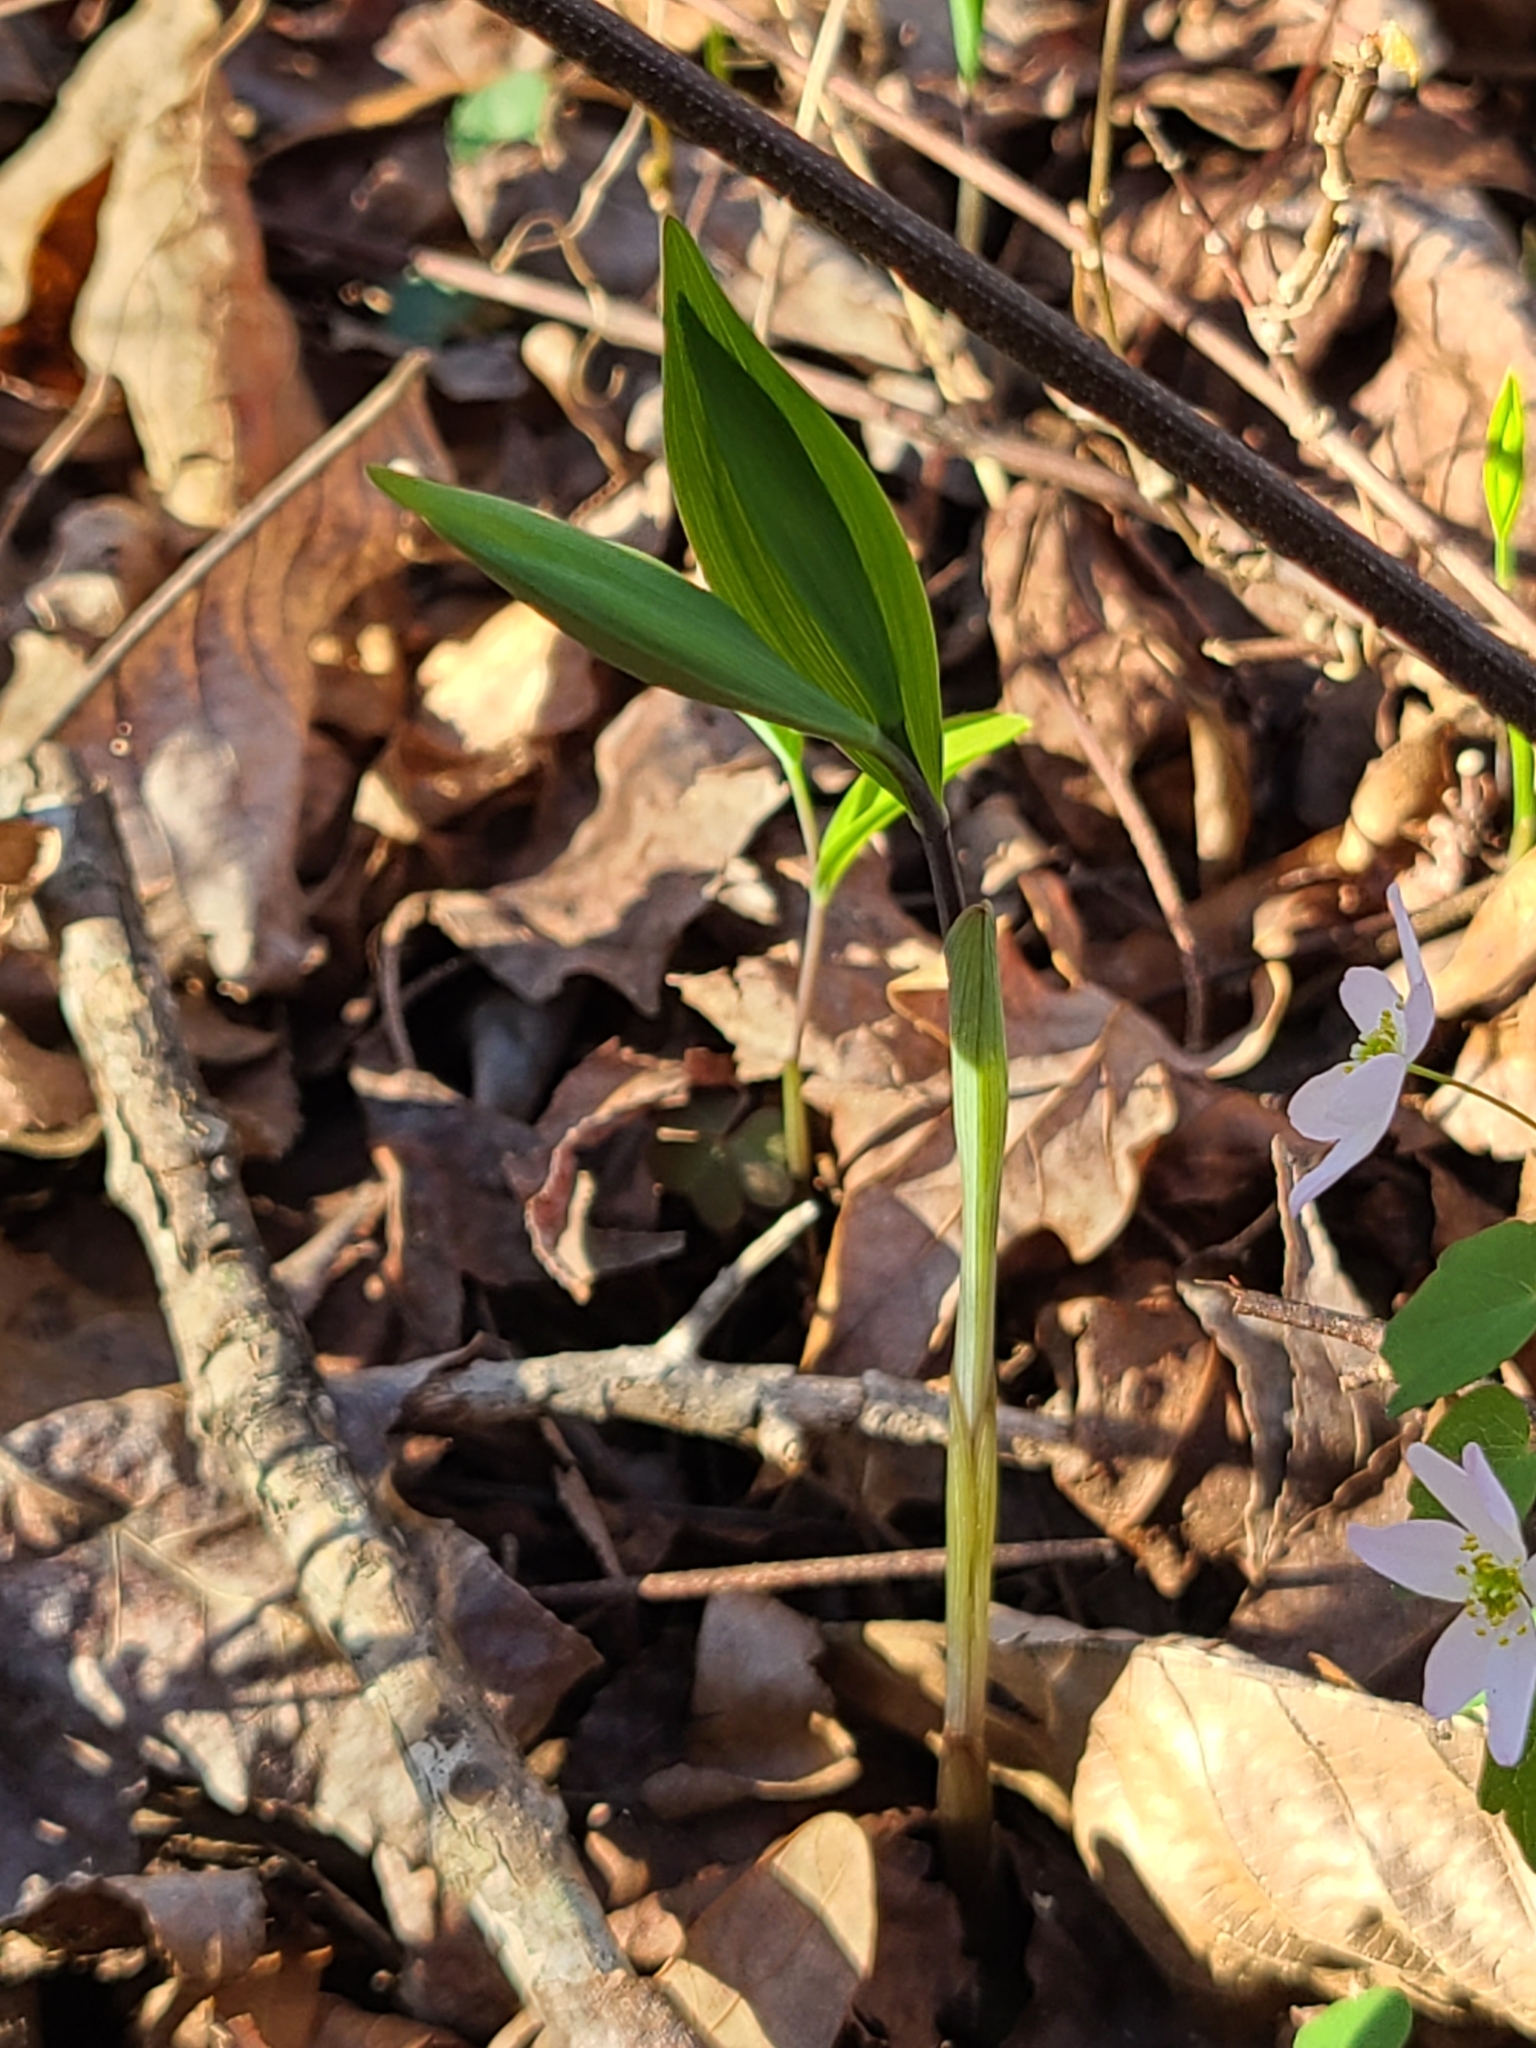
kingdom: Plantae
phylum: Tracheophyta
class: Liliopsida
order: Liliales
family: Colchicaceae
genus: Uvularia
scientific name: Uvularia sessilifolia
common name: Straw-lily
